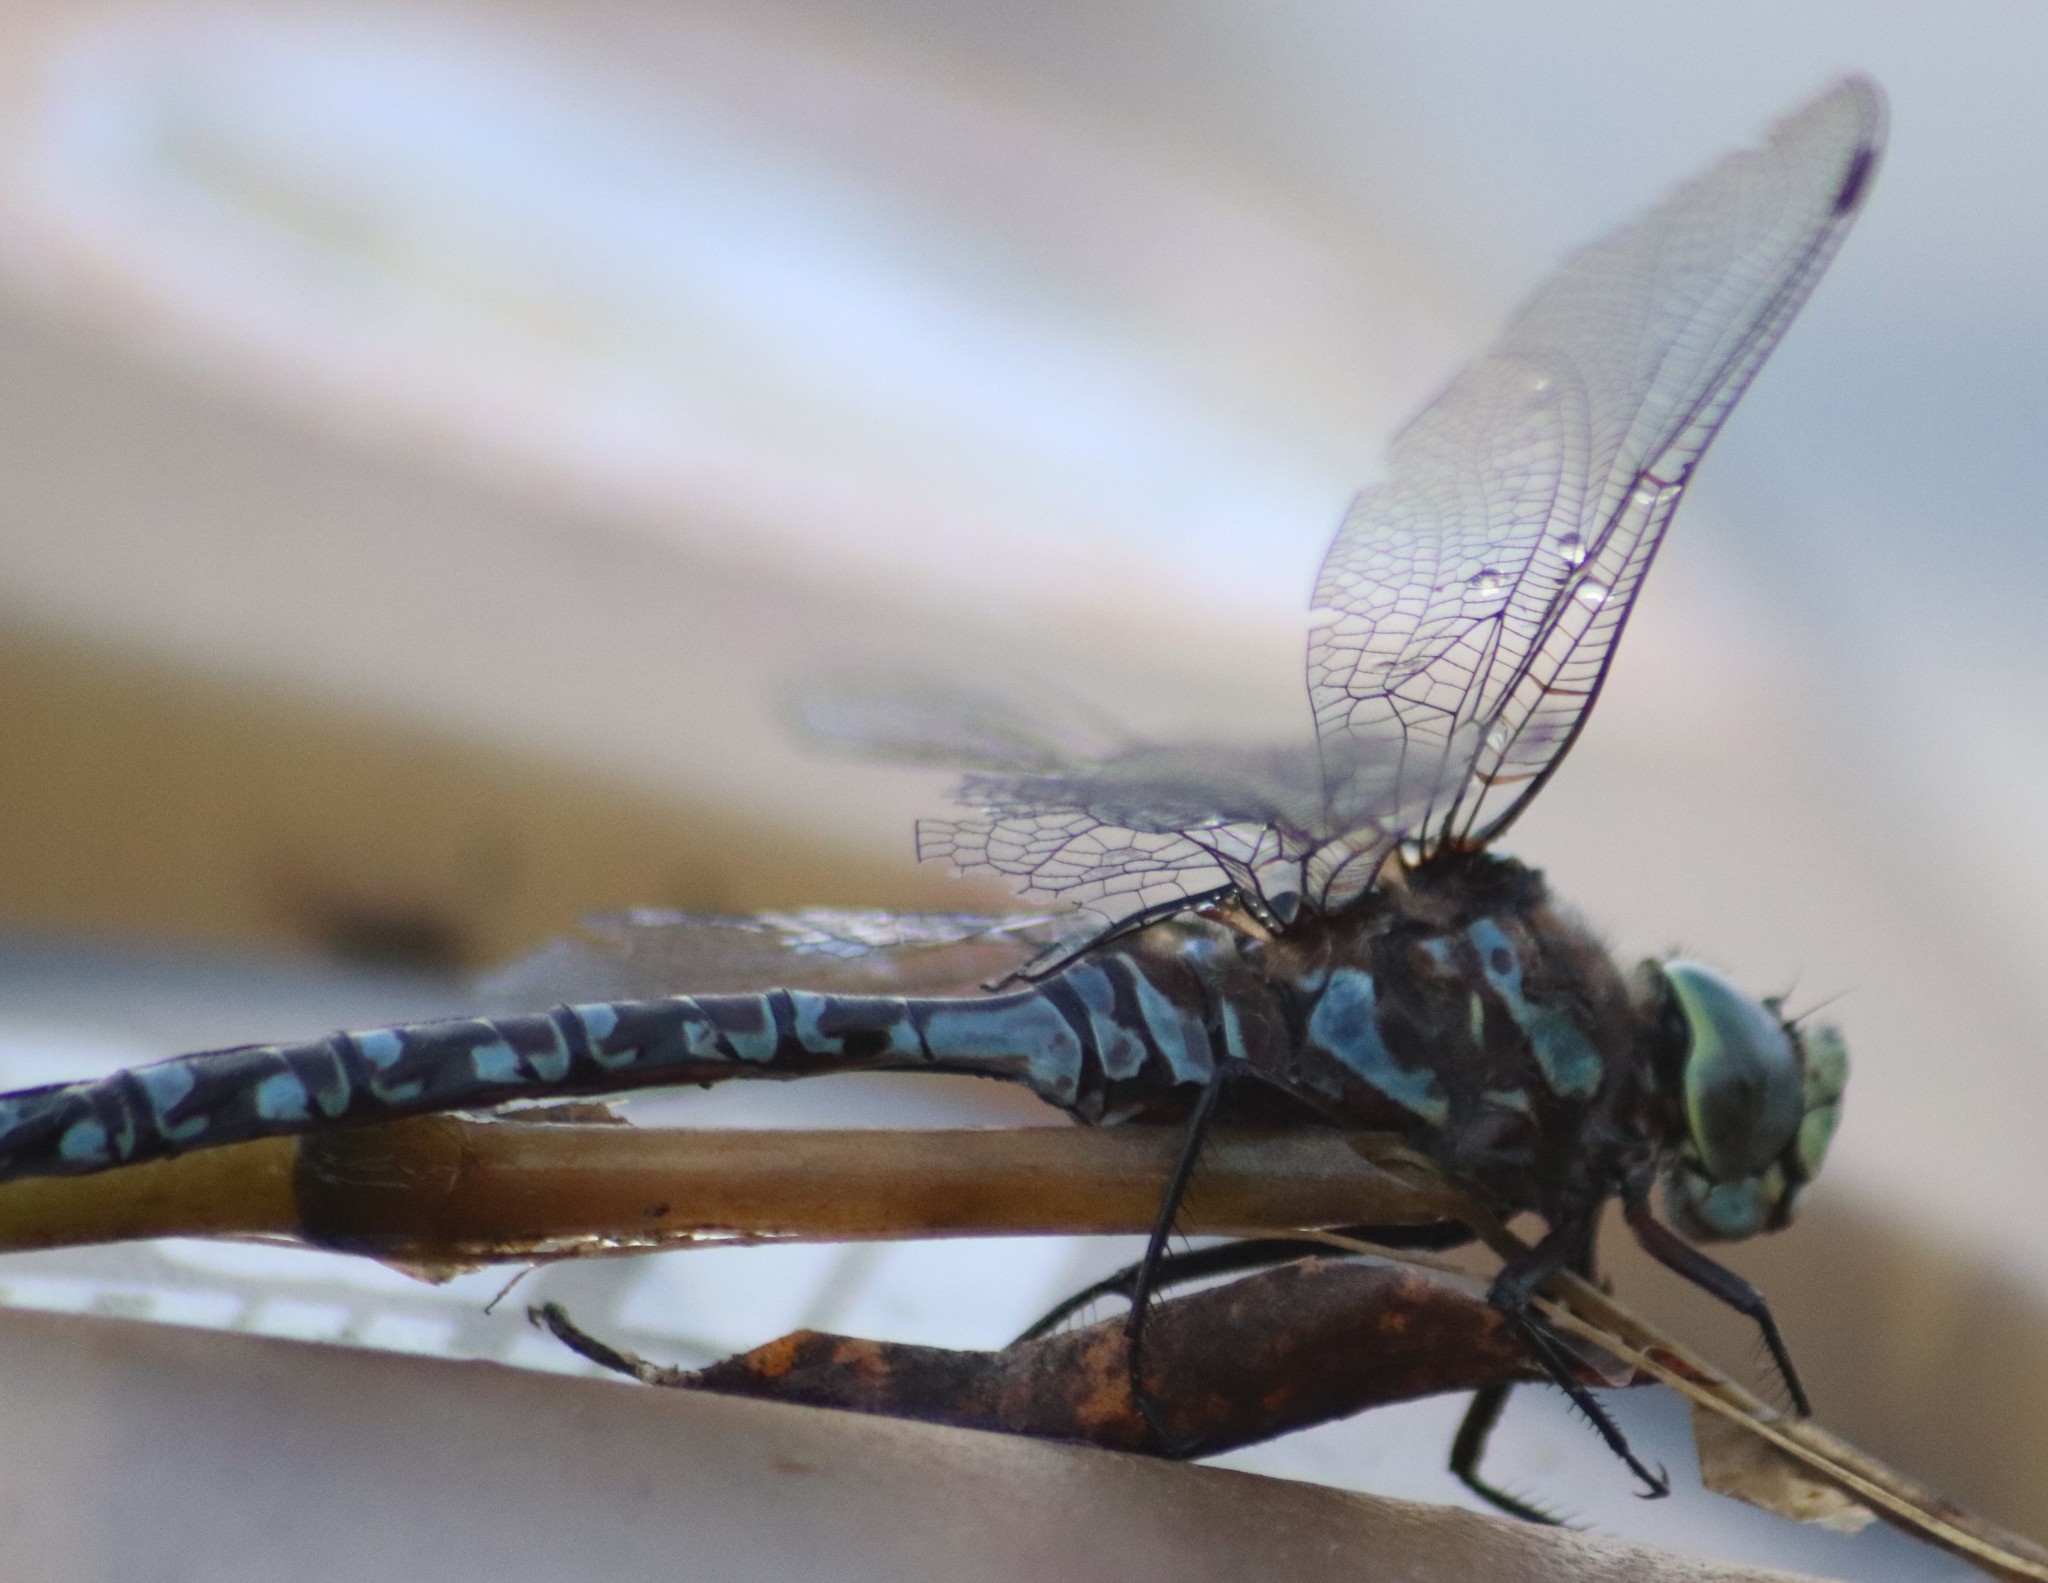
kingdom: Animalia
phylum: Arthropoda
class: Insecta
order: Odonata
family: Aeshnidae
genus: Aeshna
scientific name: Aeshna eremita
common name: Lake darner
